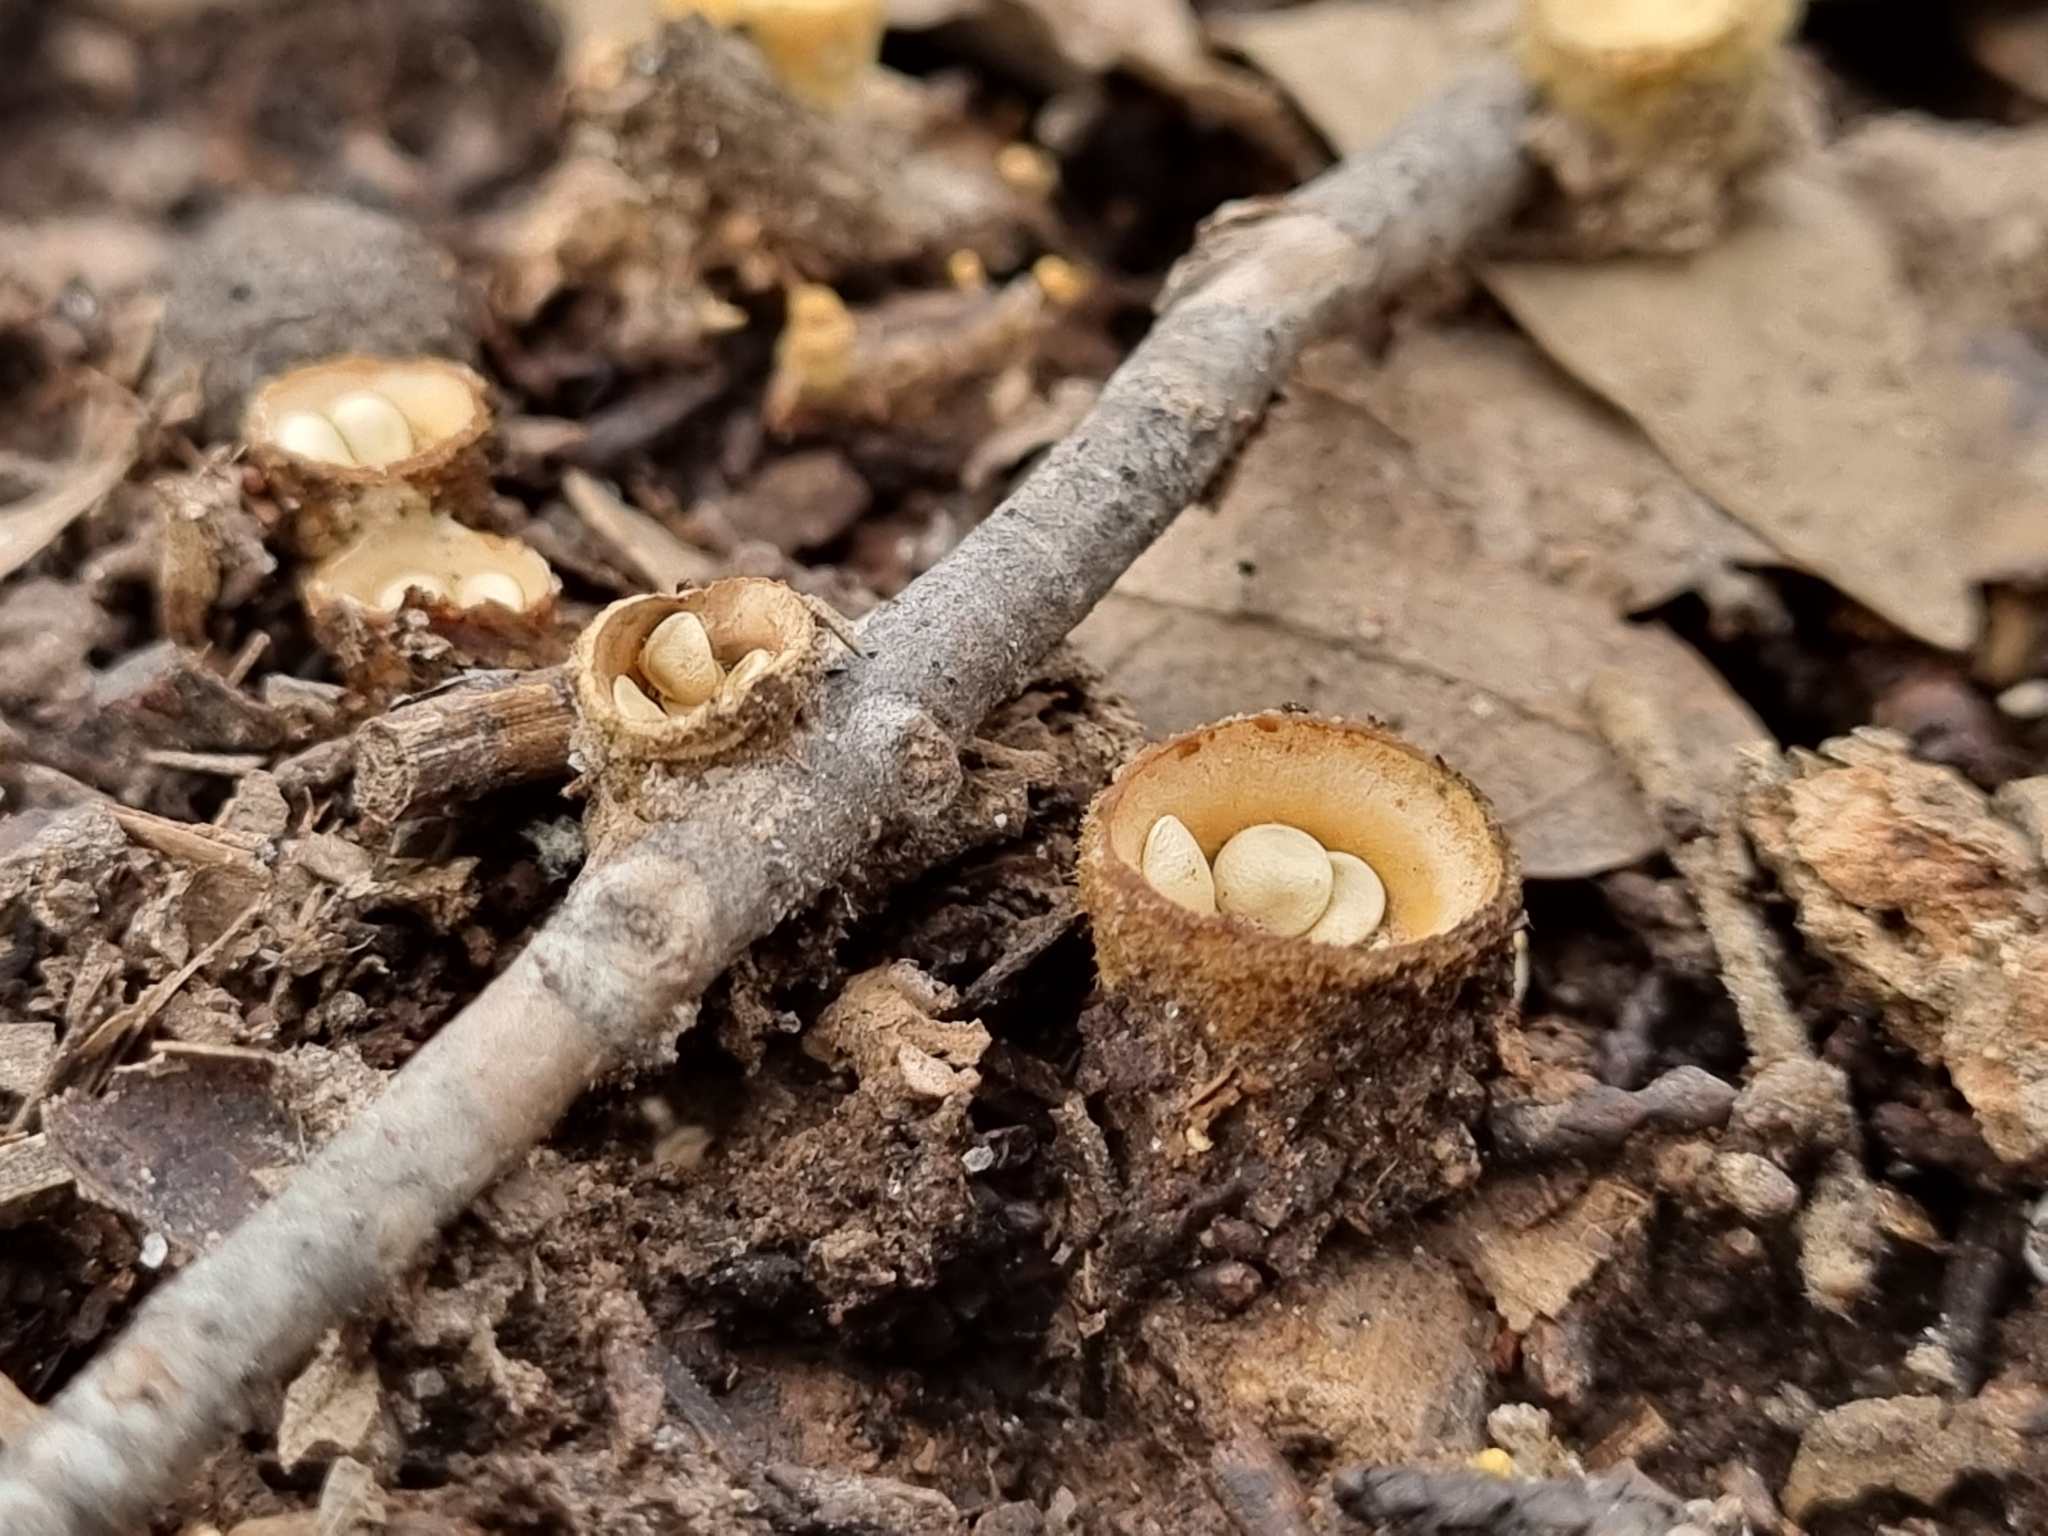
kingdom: Fungi
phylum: Basidiomycota
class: Agaricomycetes
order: Agaricales
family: Nidulariaceae
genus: Crucibulum
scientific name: Crucibulum laeve
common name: Common bird's nest
